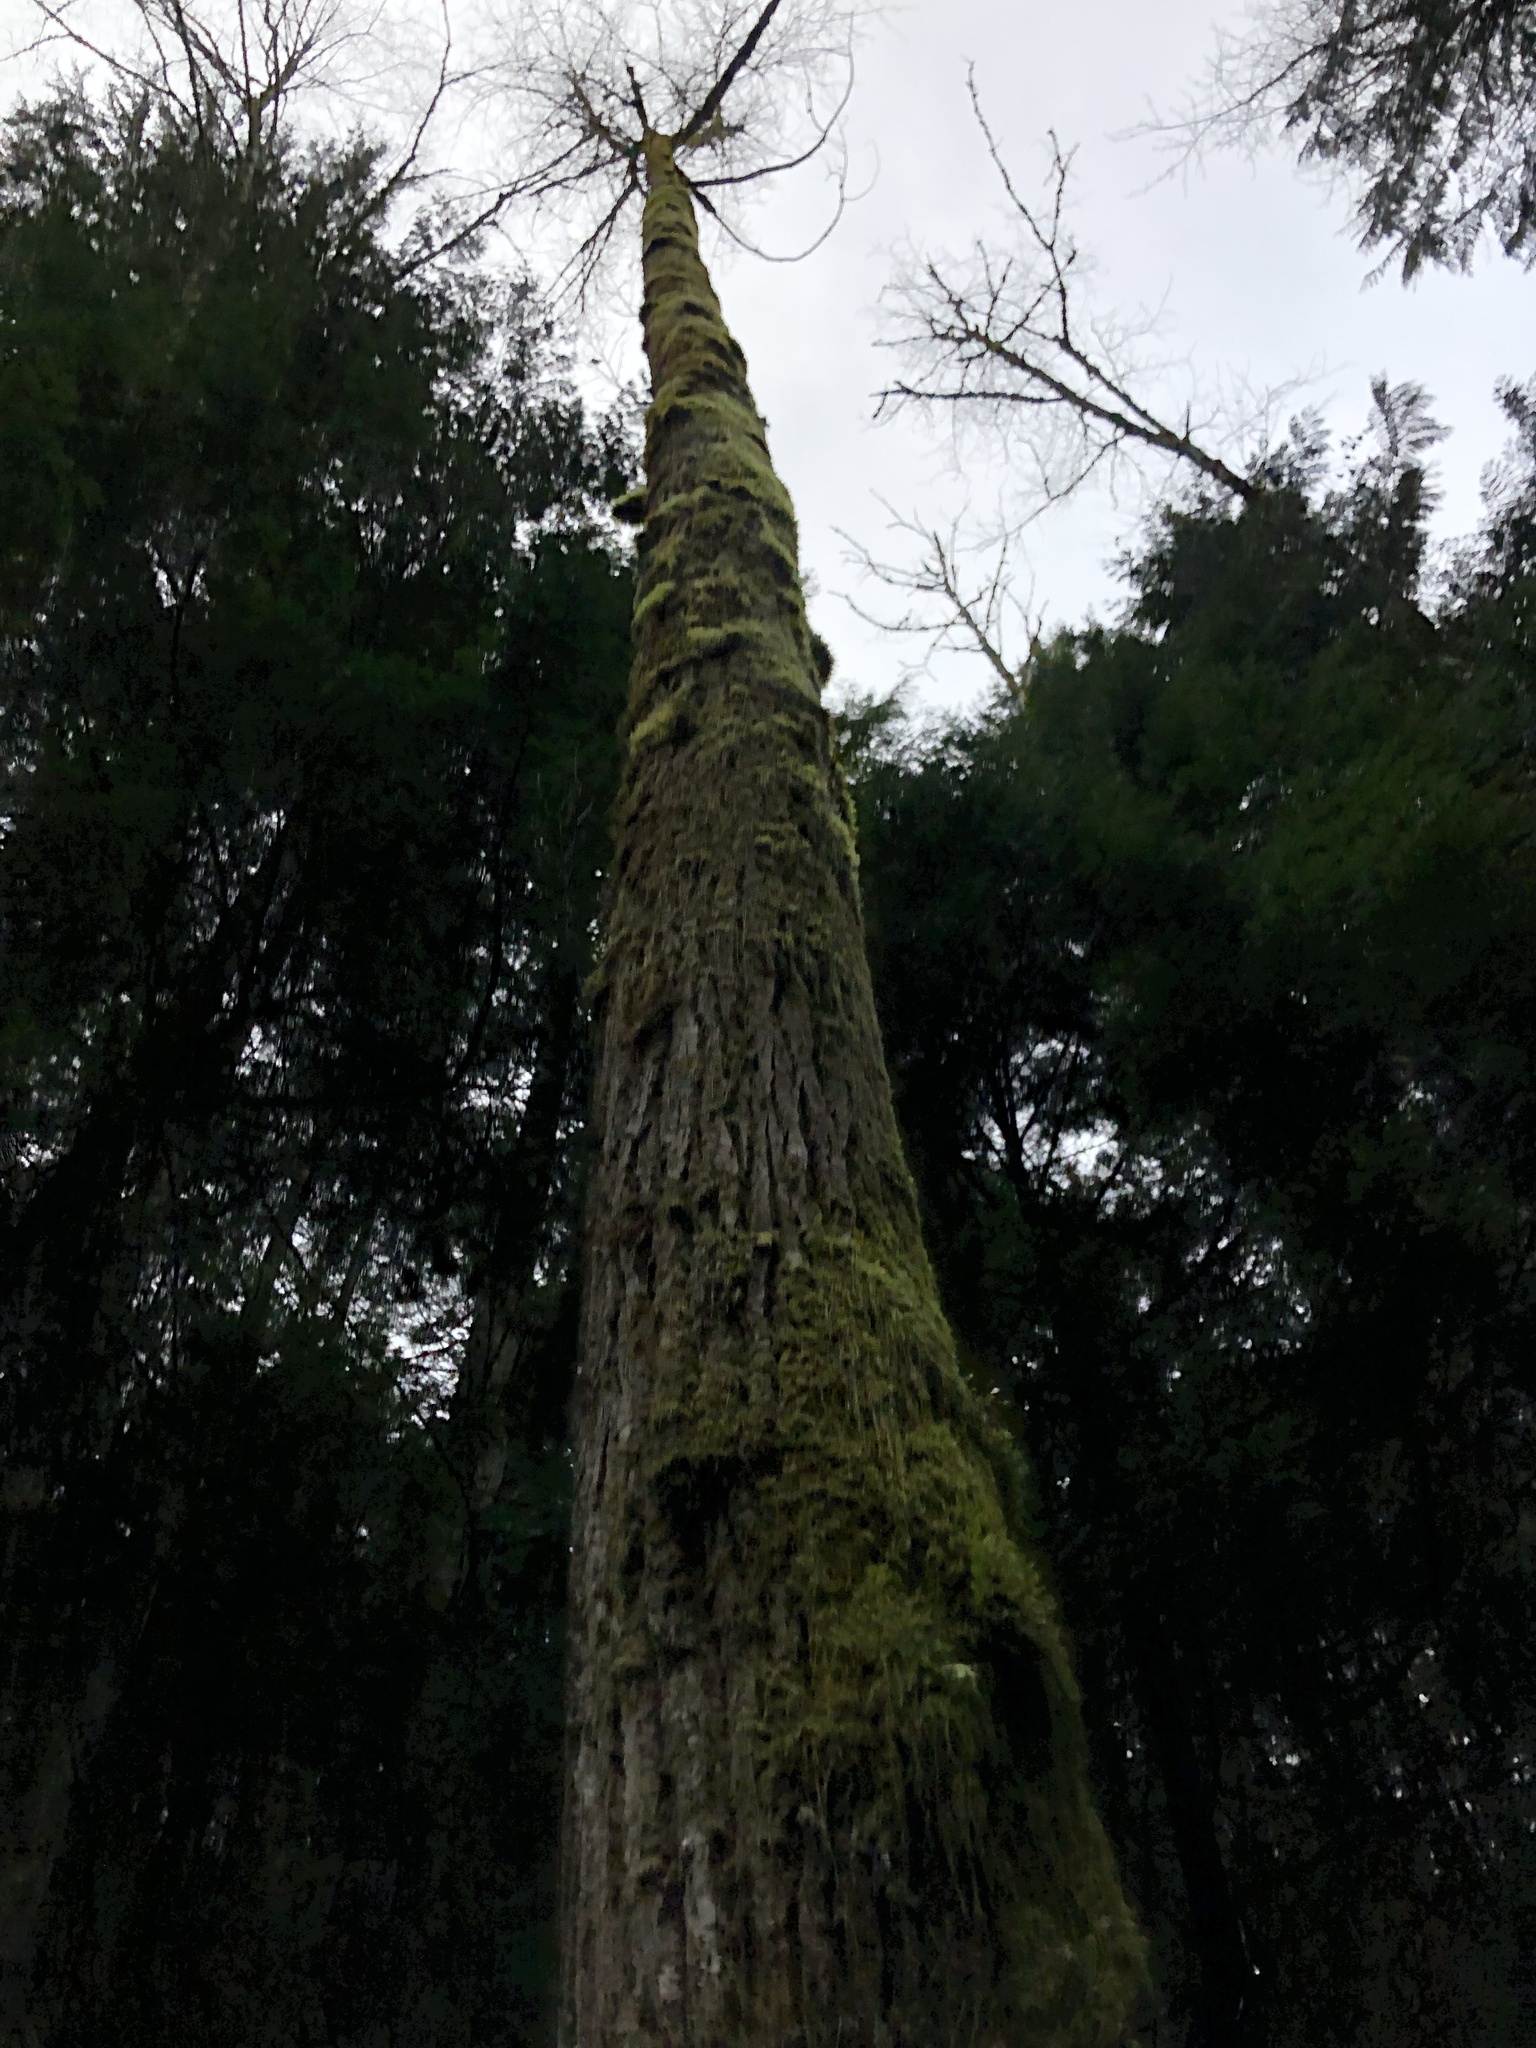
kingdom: Plantae
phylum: Tracheophyta
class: Magnoliopsida
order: Malpighiales
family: Salicaceae
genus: Populus
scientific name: Populus trichocarpa
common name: Black cottonwood
